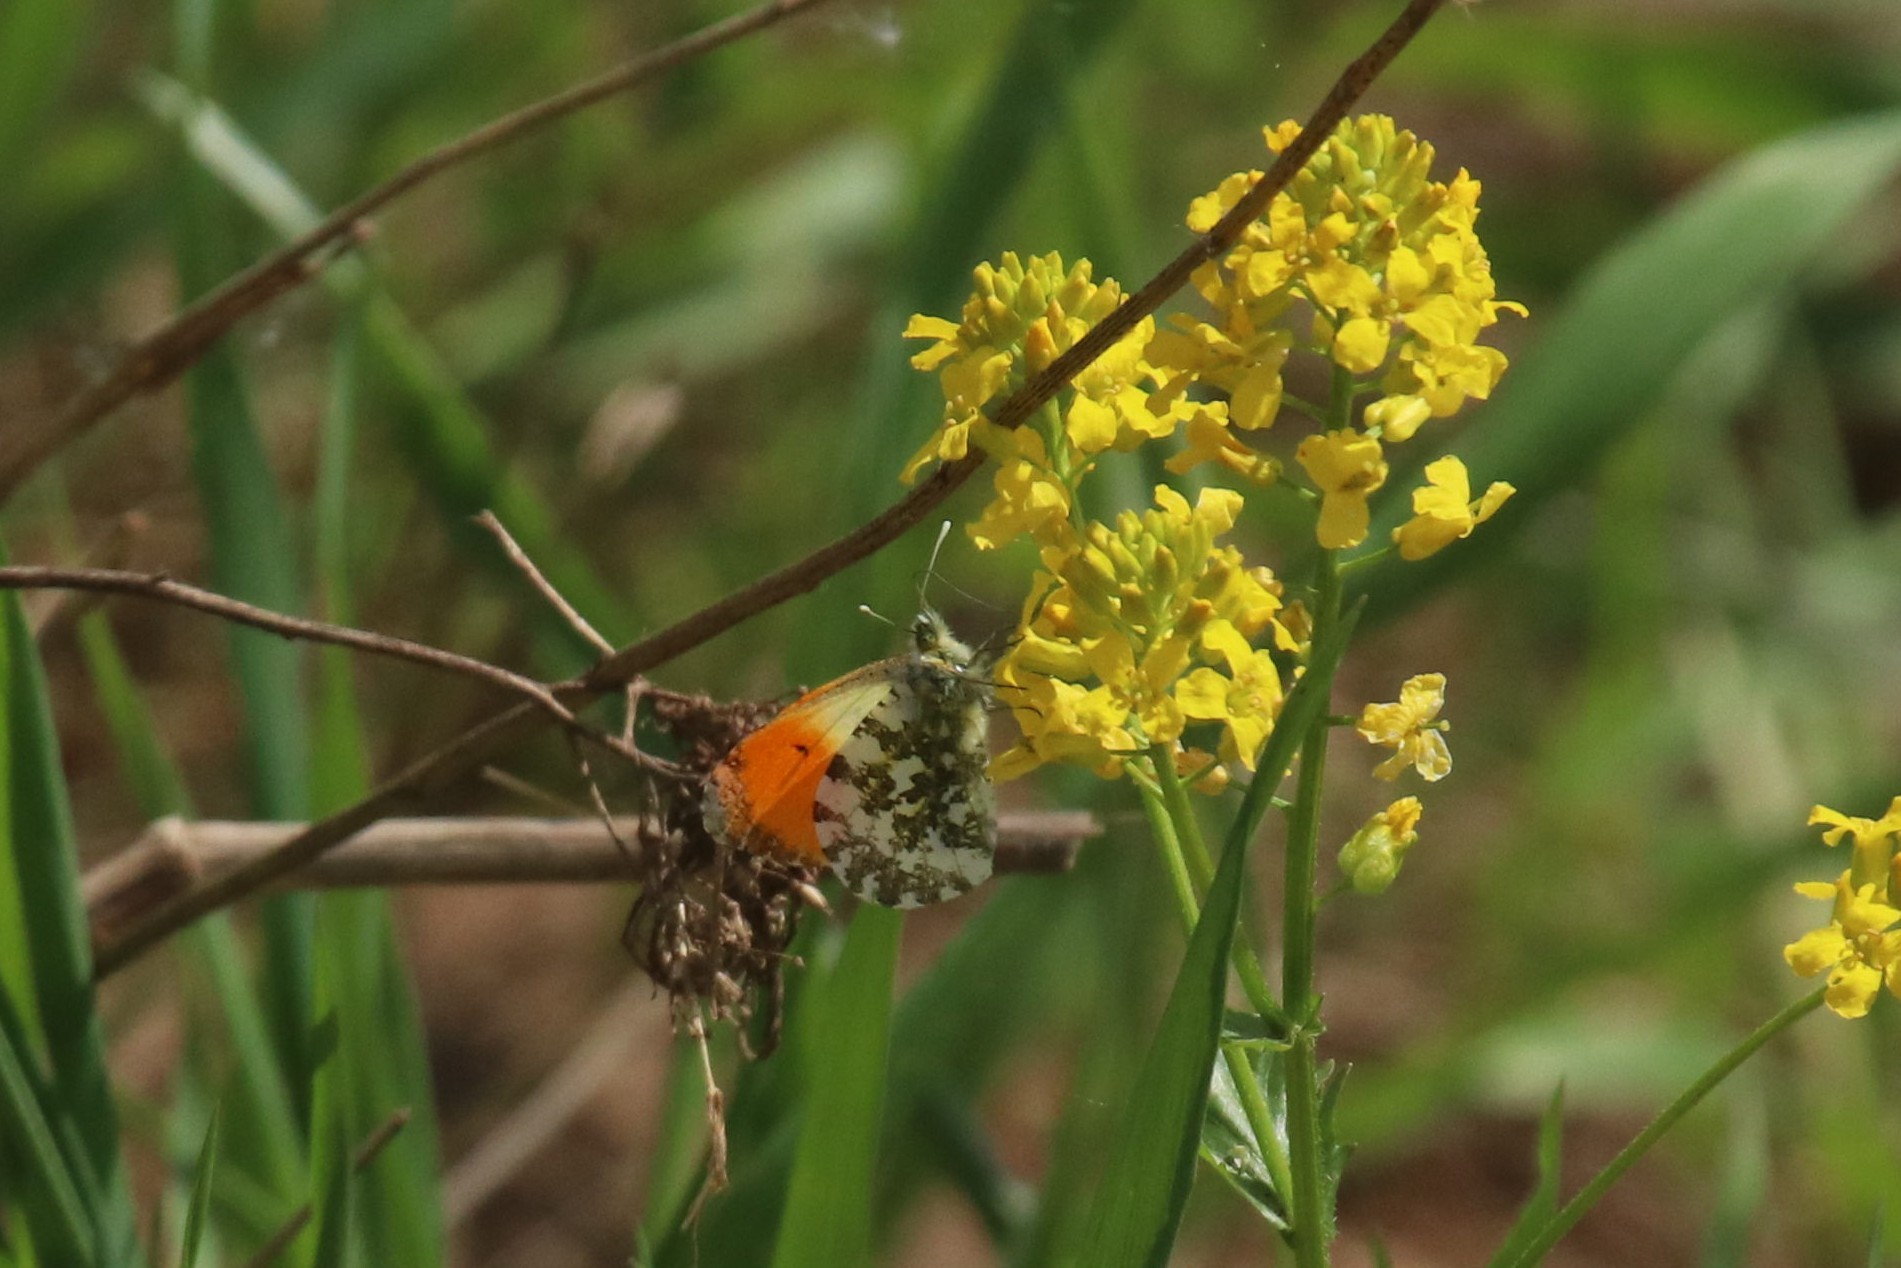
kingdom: Animalia
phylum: Arthropoda
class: Insecta
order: Lepidoptera
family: Pieridae
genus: Anthocharis
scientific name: Anthocharis cardamines
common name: Orange-tip
